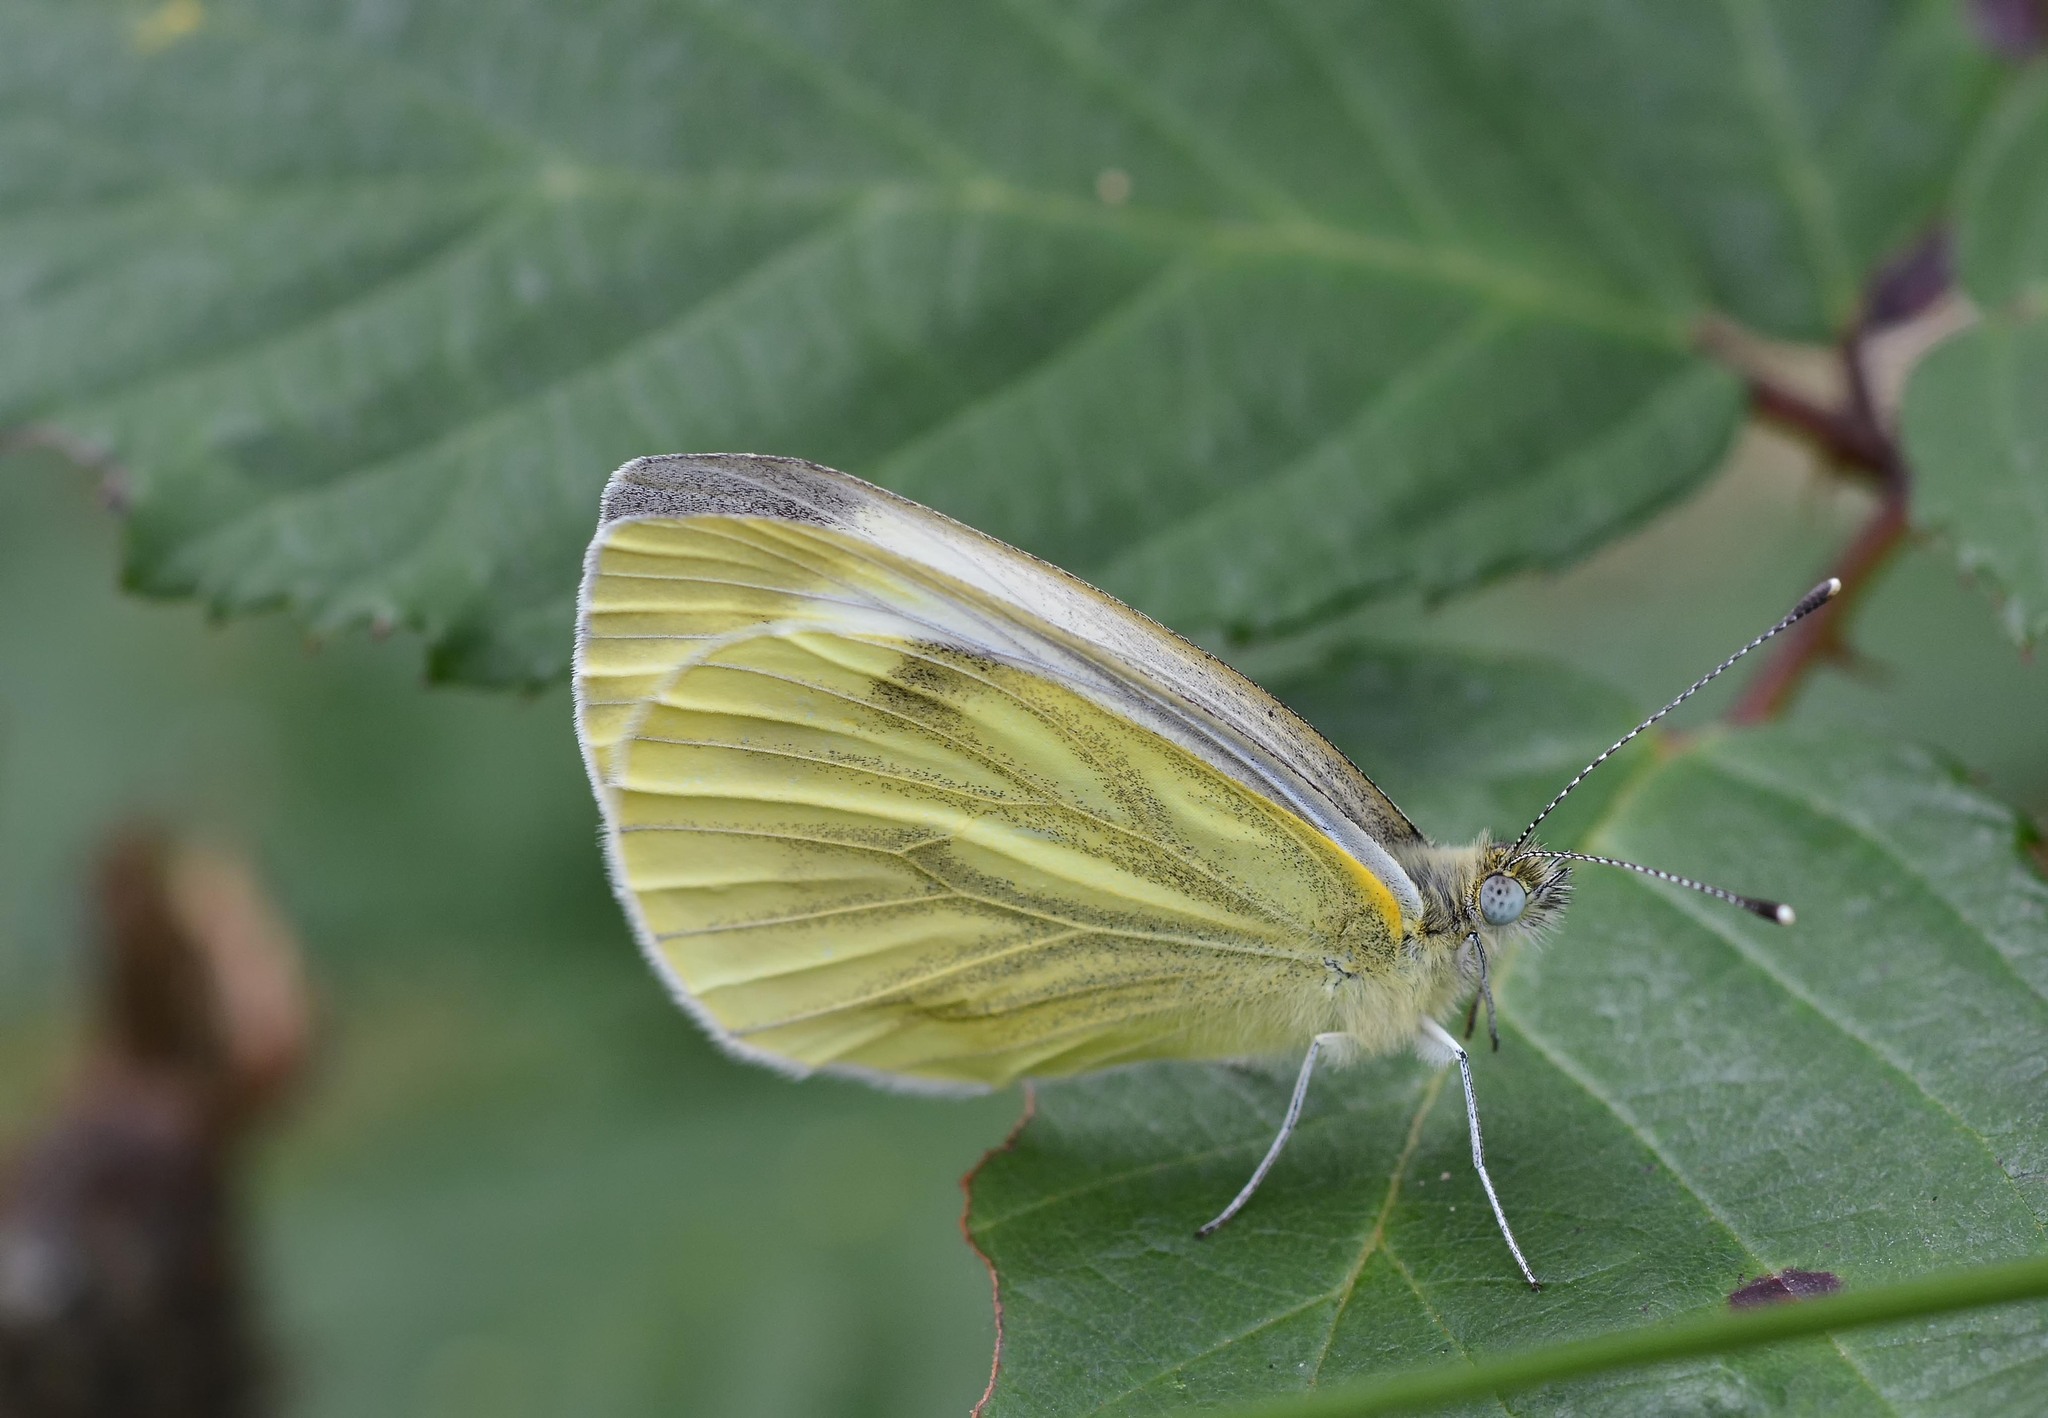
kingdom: Animalia
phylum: Arthropoda
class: Insecta
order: Lepidoptera
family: Pieridae
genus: Pieris
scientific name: Pieris napi
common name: Green-veined white
